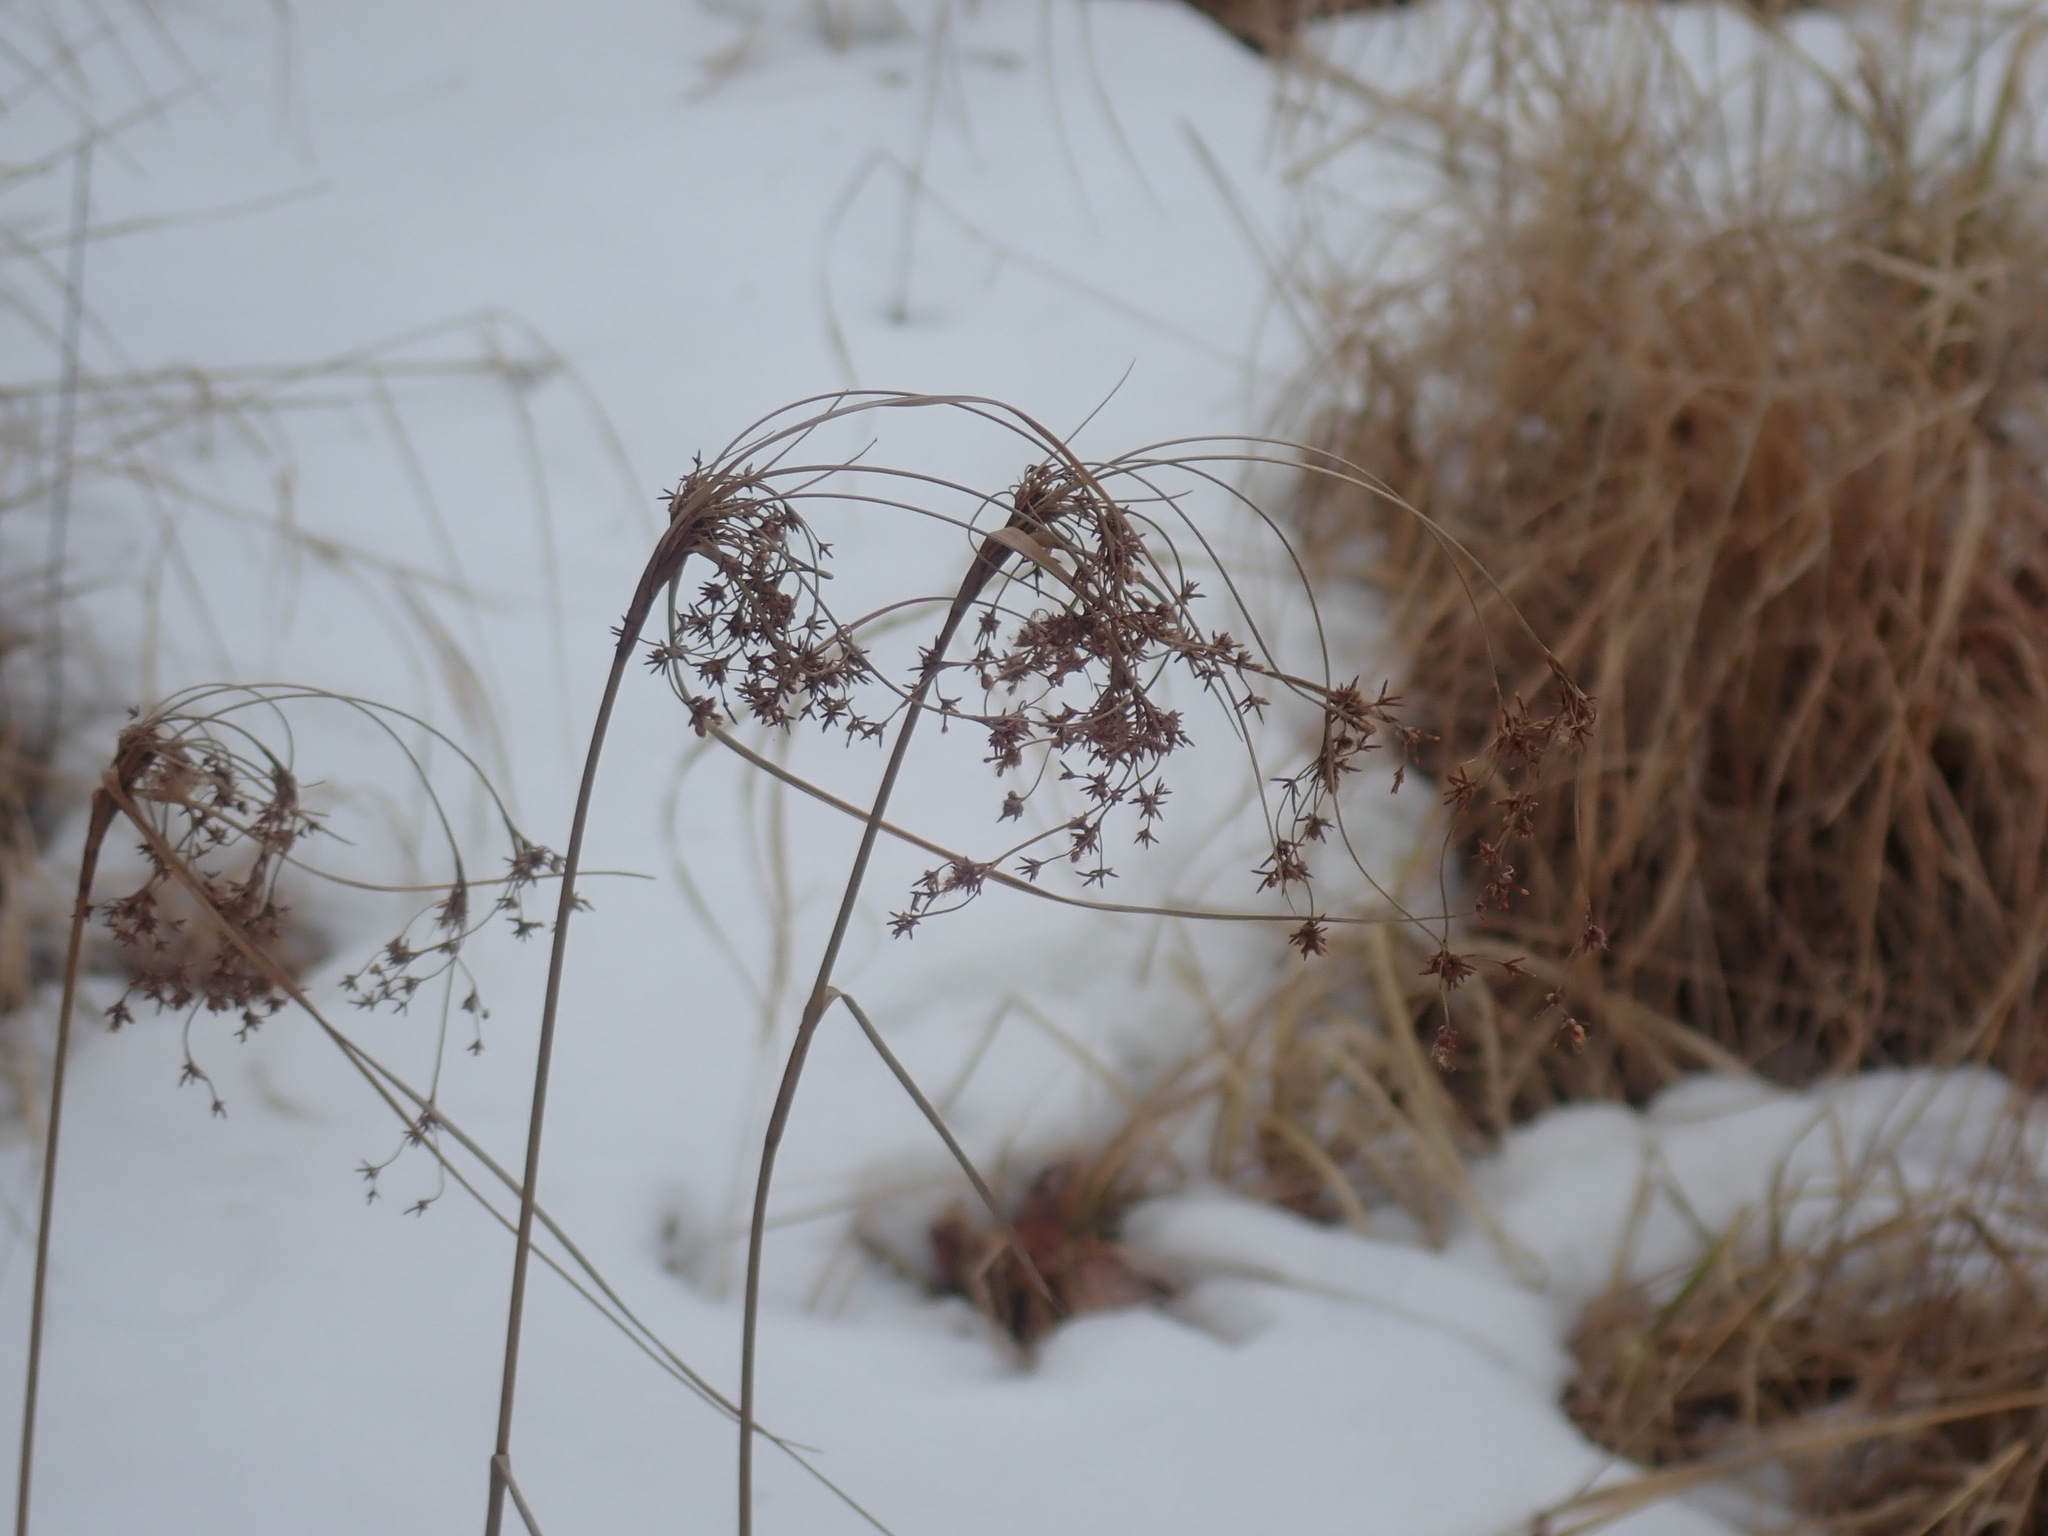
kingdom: Plantae
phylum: Tracheophyta
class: Liliopsida
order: Poales
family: Cyperaceae
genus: Scirpus
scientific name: Scirpus
